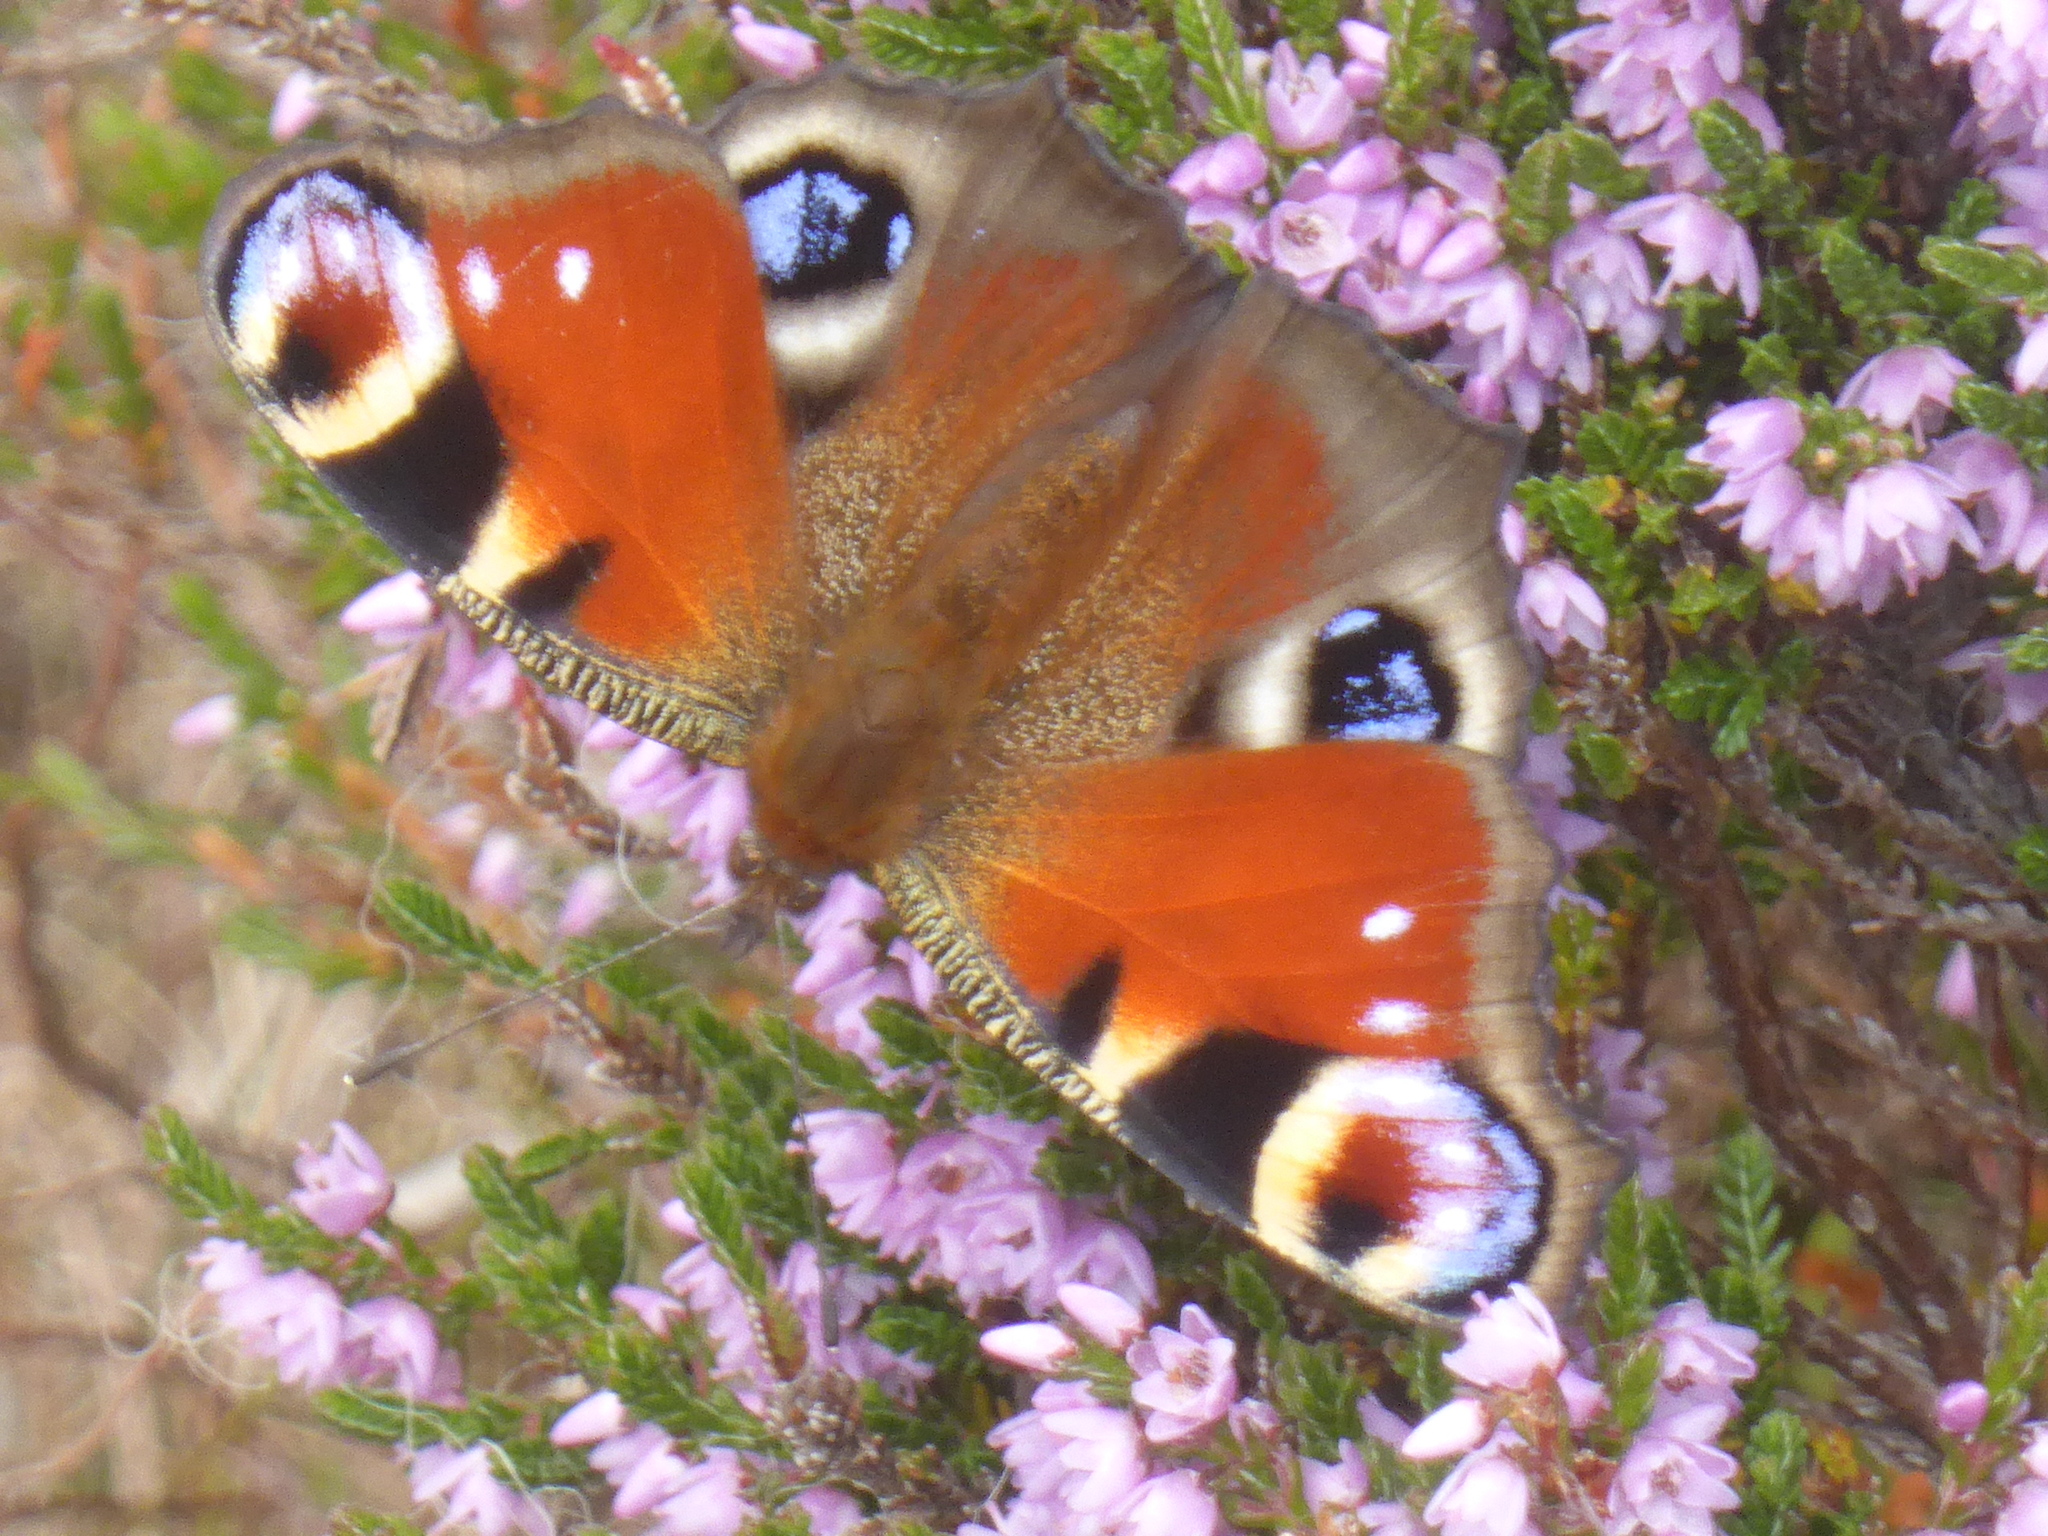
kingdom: Animalia
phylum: Arthropoda
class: Insecta
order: Lepidoptera
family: Nymphalidae
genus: Aglais
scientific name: Aglais io
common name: Peacock
